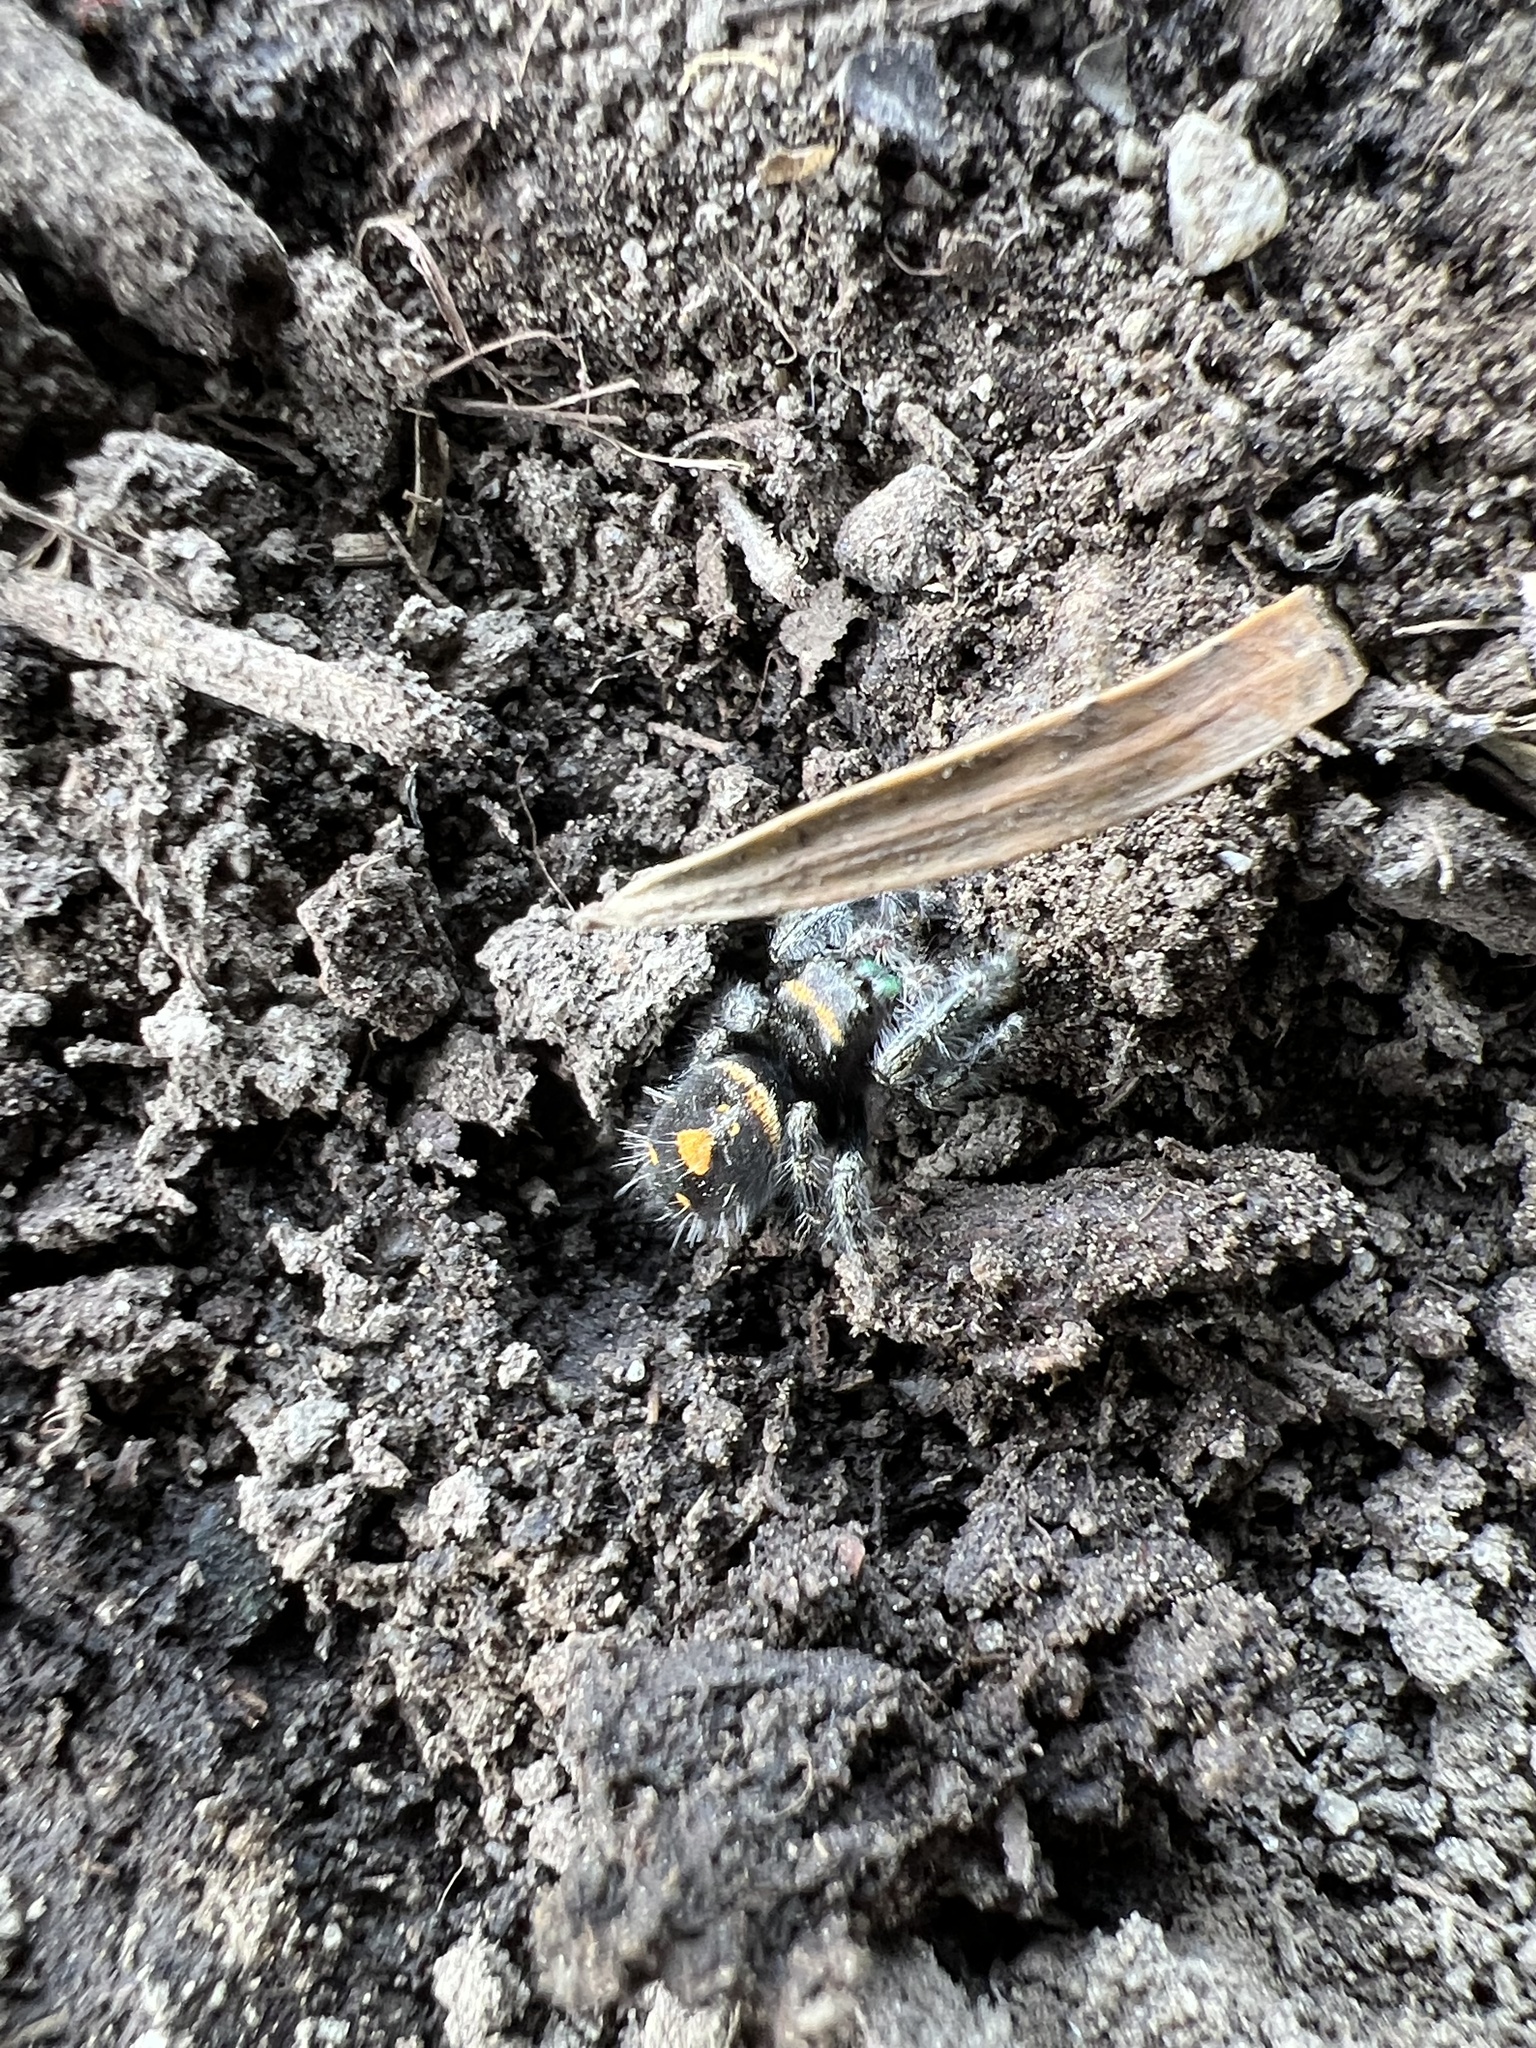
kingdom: Animalia
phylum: Arthropoda
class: Arachnida
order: Araneae
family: Salticidae
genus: Phidippus
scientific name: Phidippus audax
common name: Bold jumper
